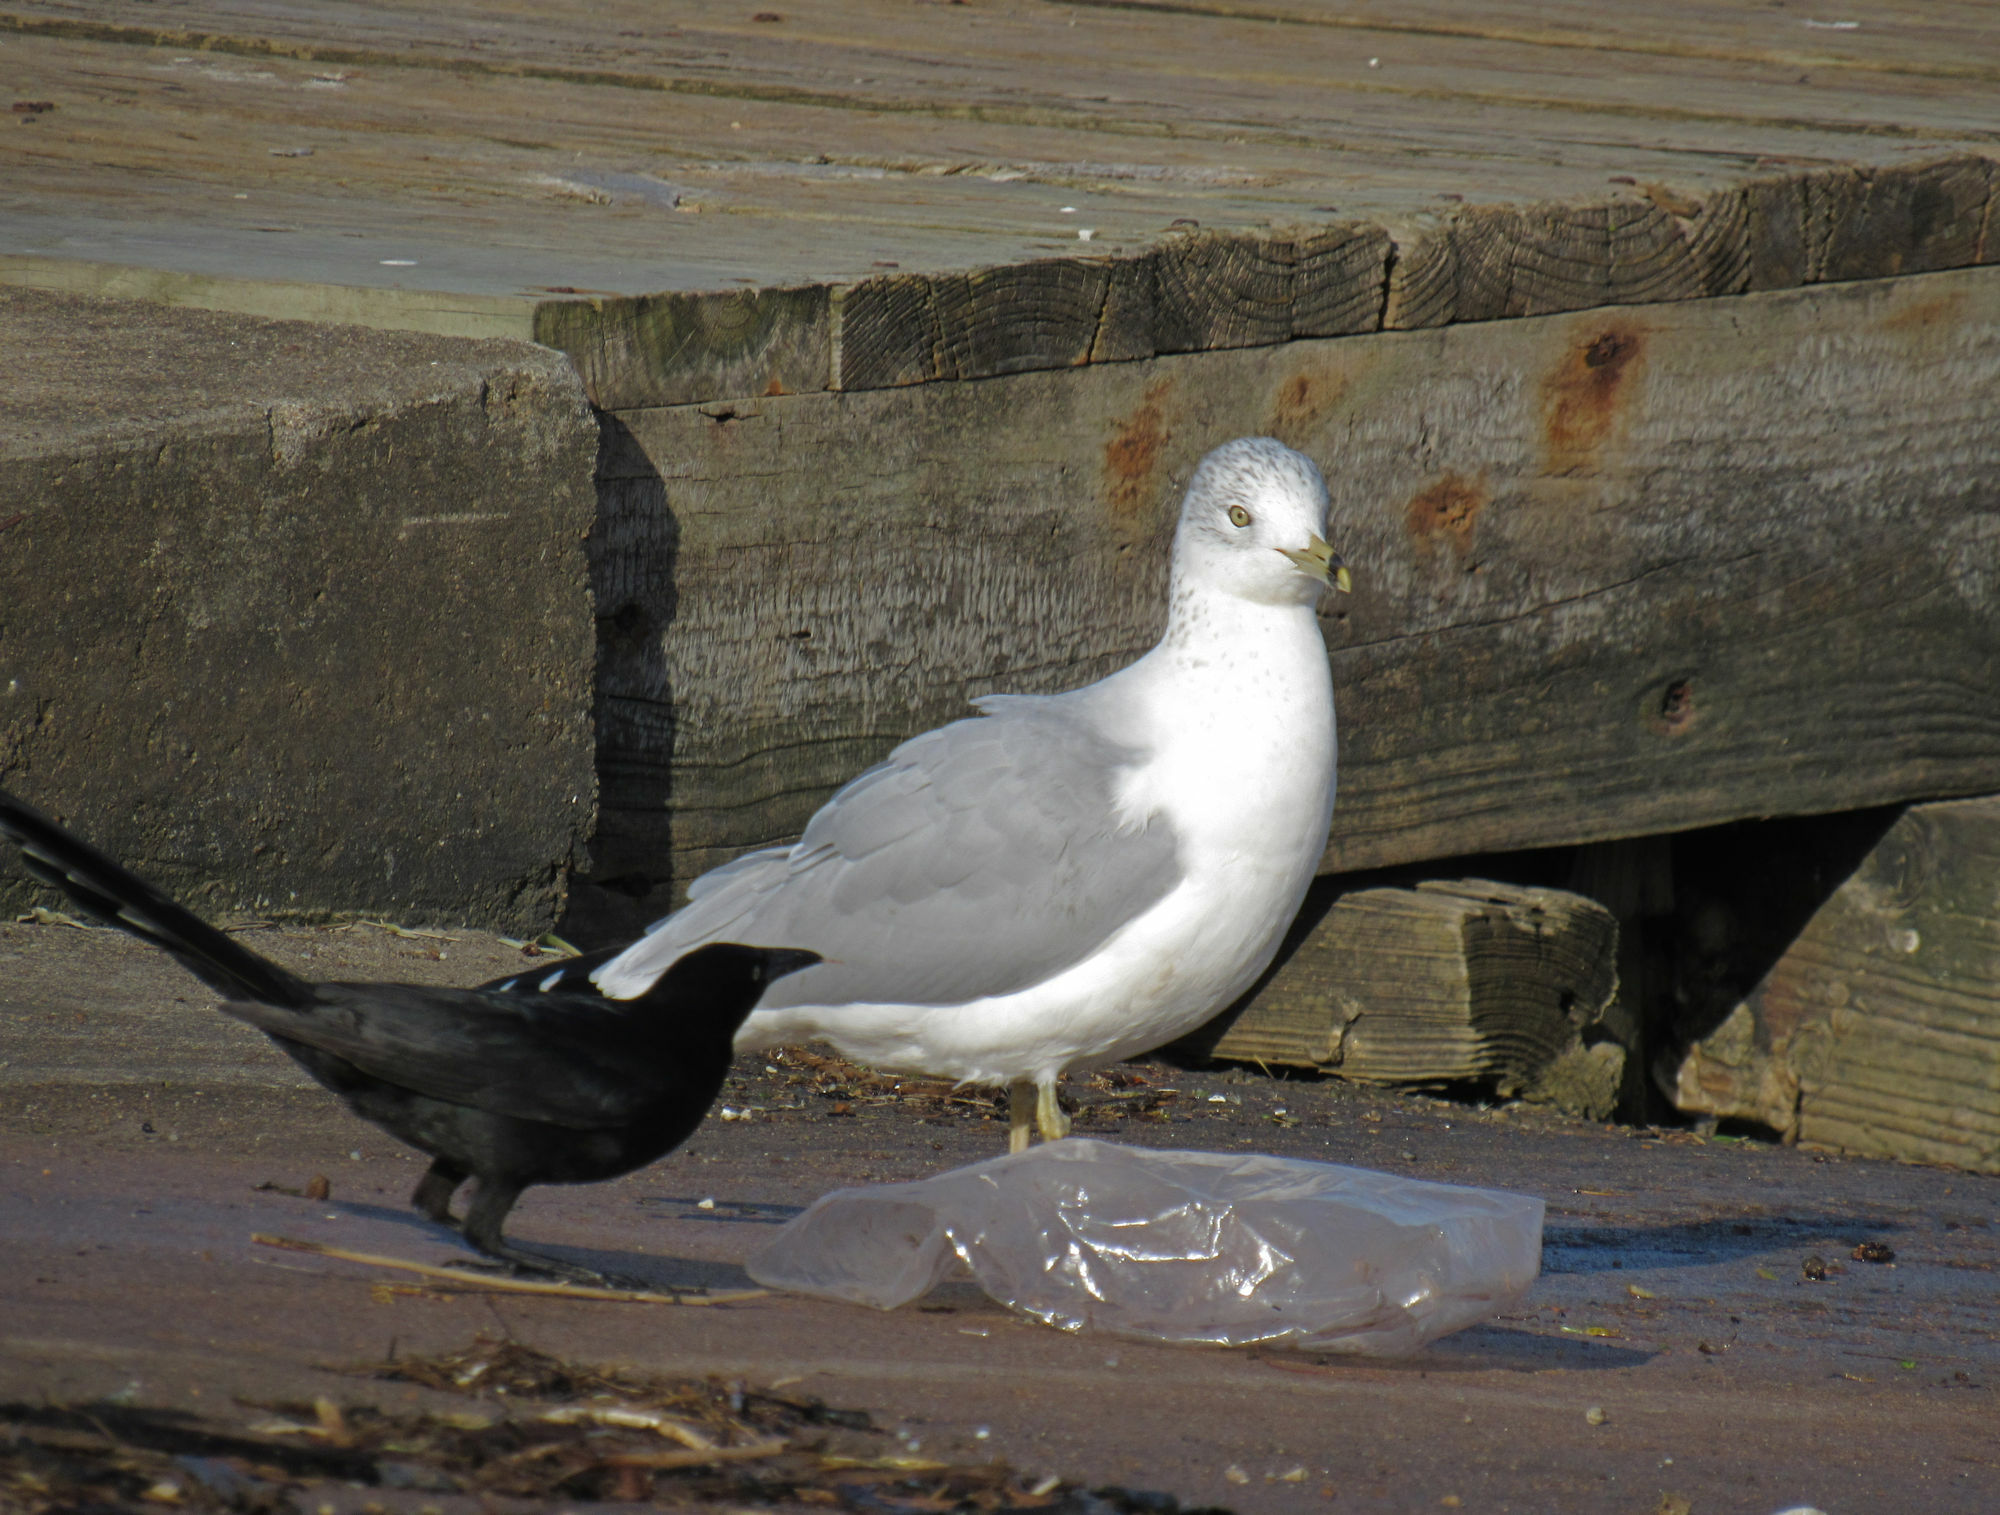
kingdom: Animalia
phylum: Chordata
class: Aves
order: Charadriiformes
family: Laridae
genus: Larus
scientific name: Larus delawarensis
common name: Ring-billed gull
